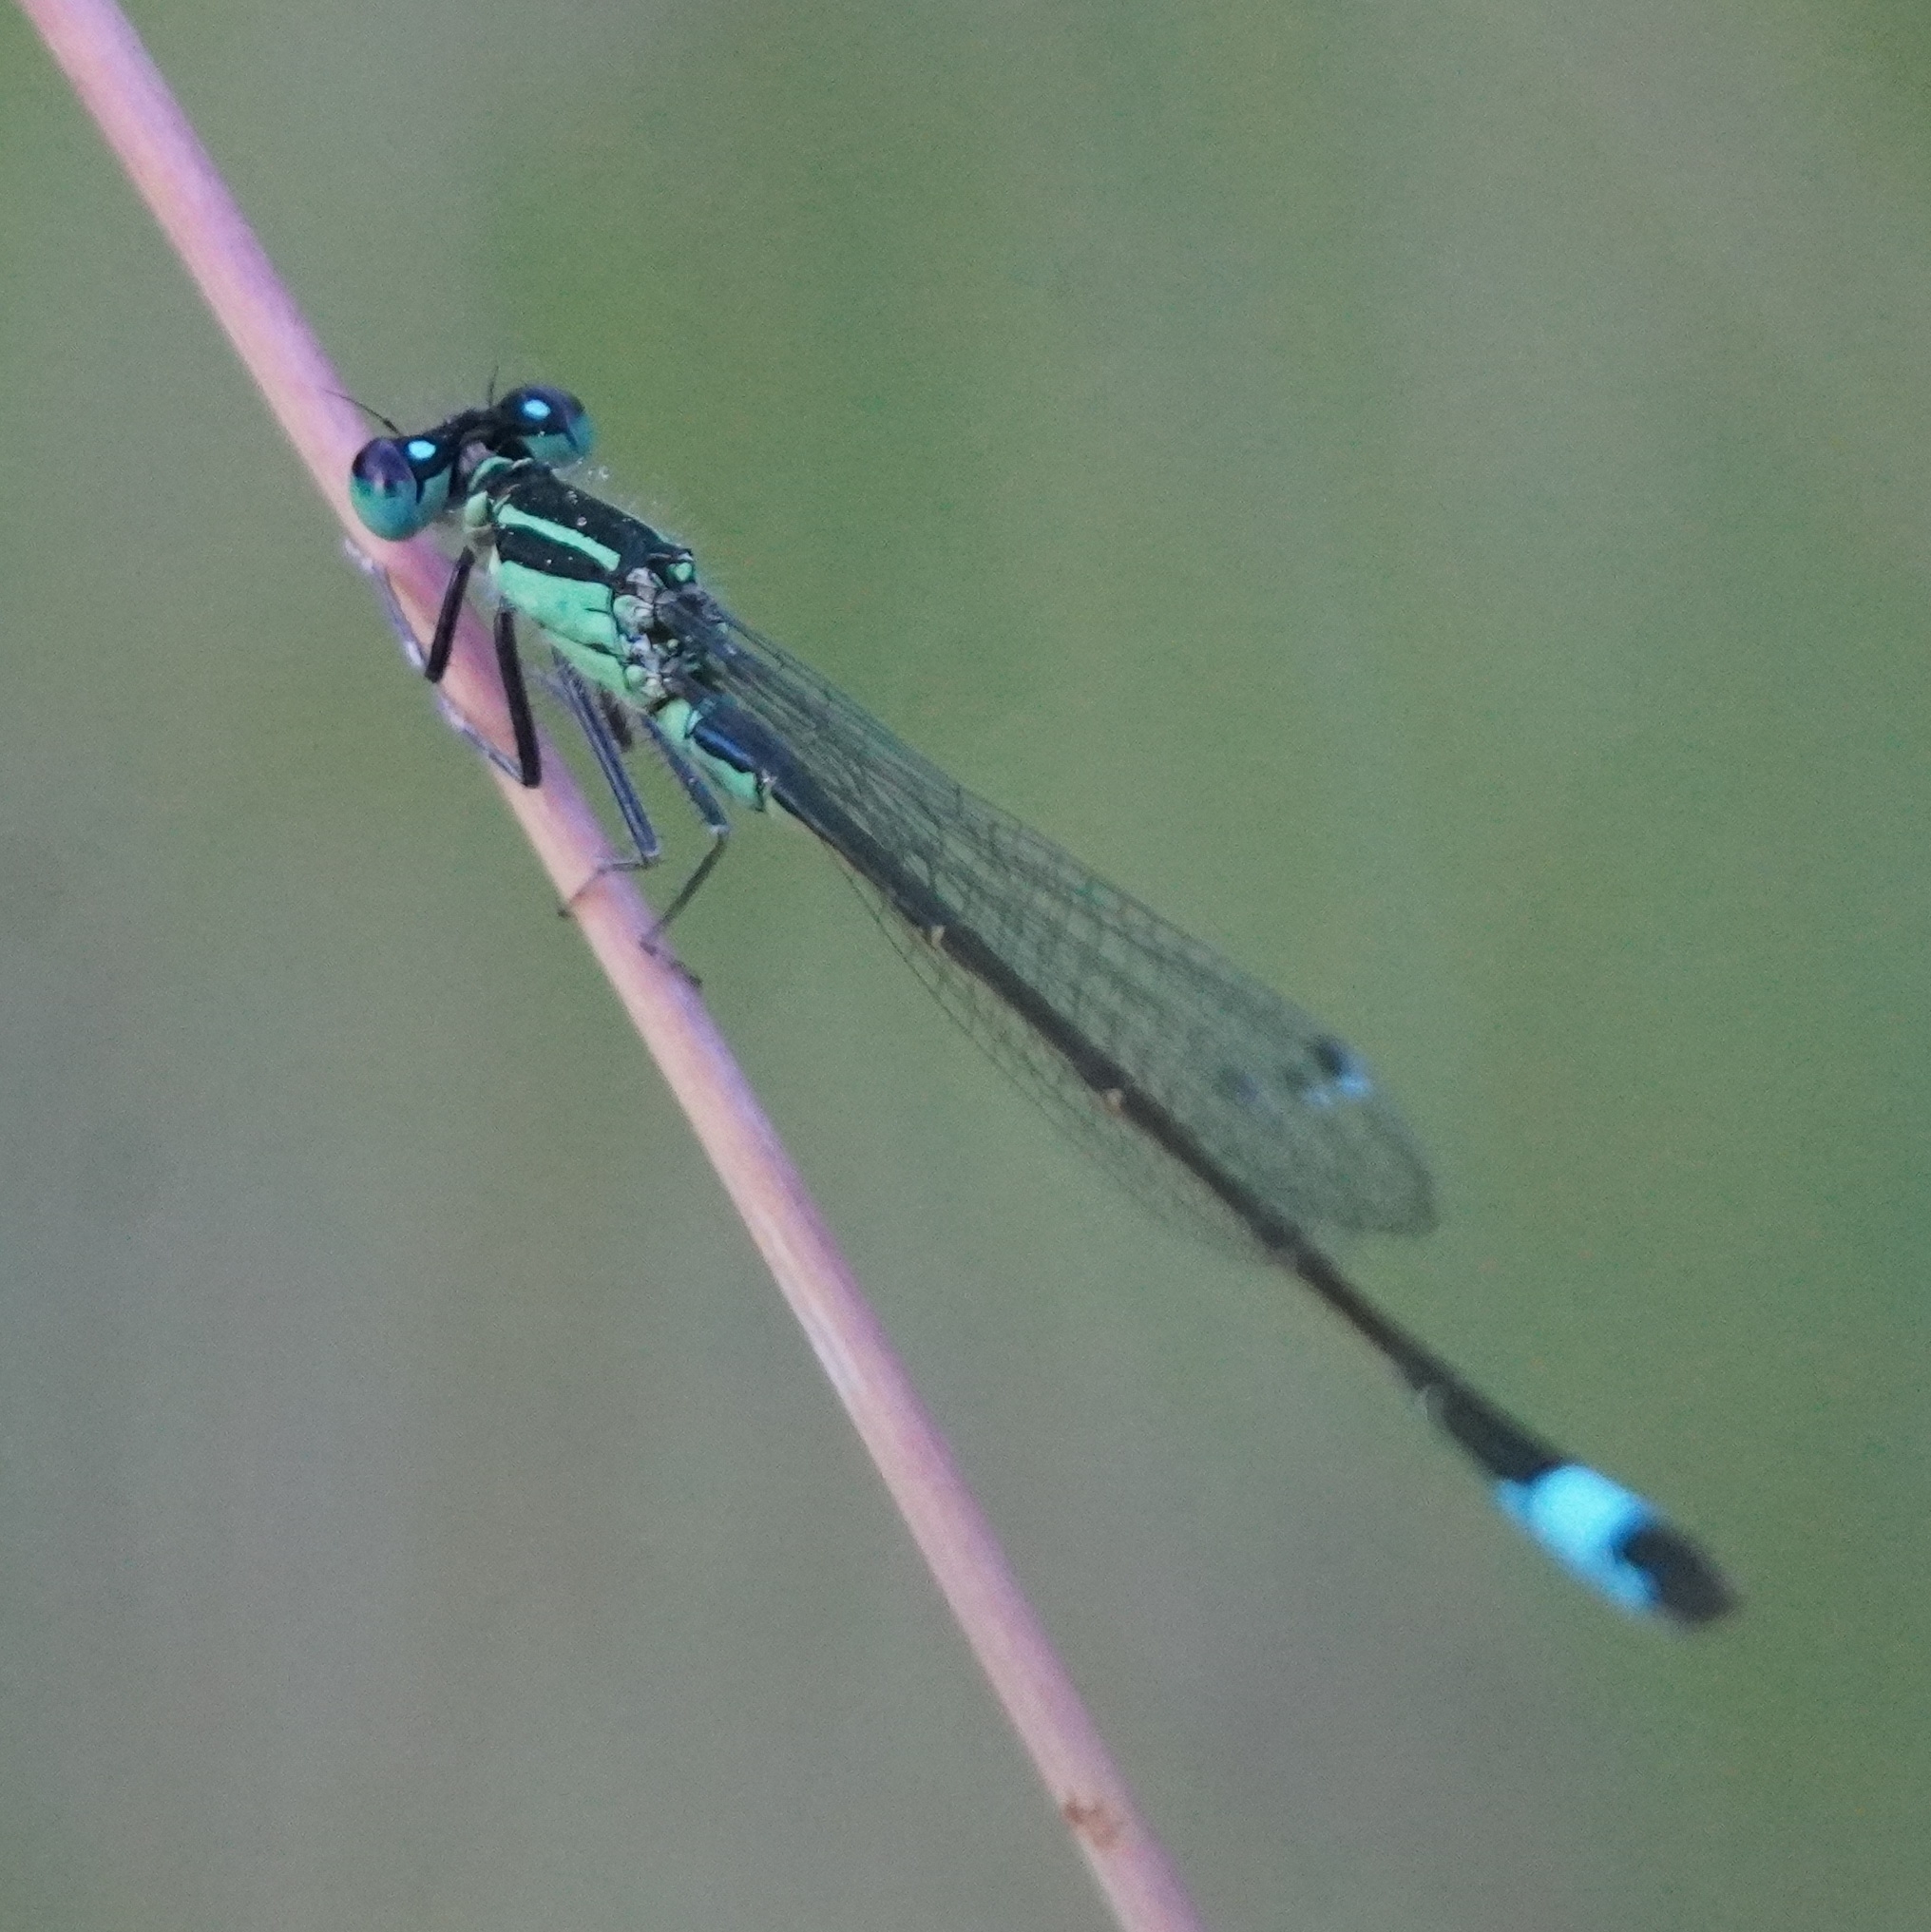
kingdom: Animalia
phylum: Arthropoda
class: Insecta
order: Odonata
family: Coenagrionidae
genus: Ischnura
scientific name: Ischnura elegans
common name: Blue-tailed damselfly
